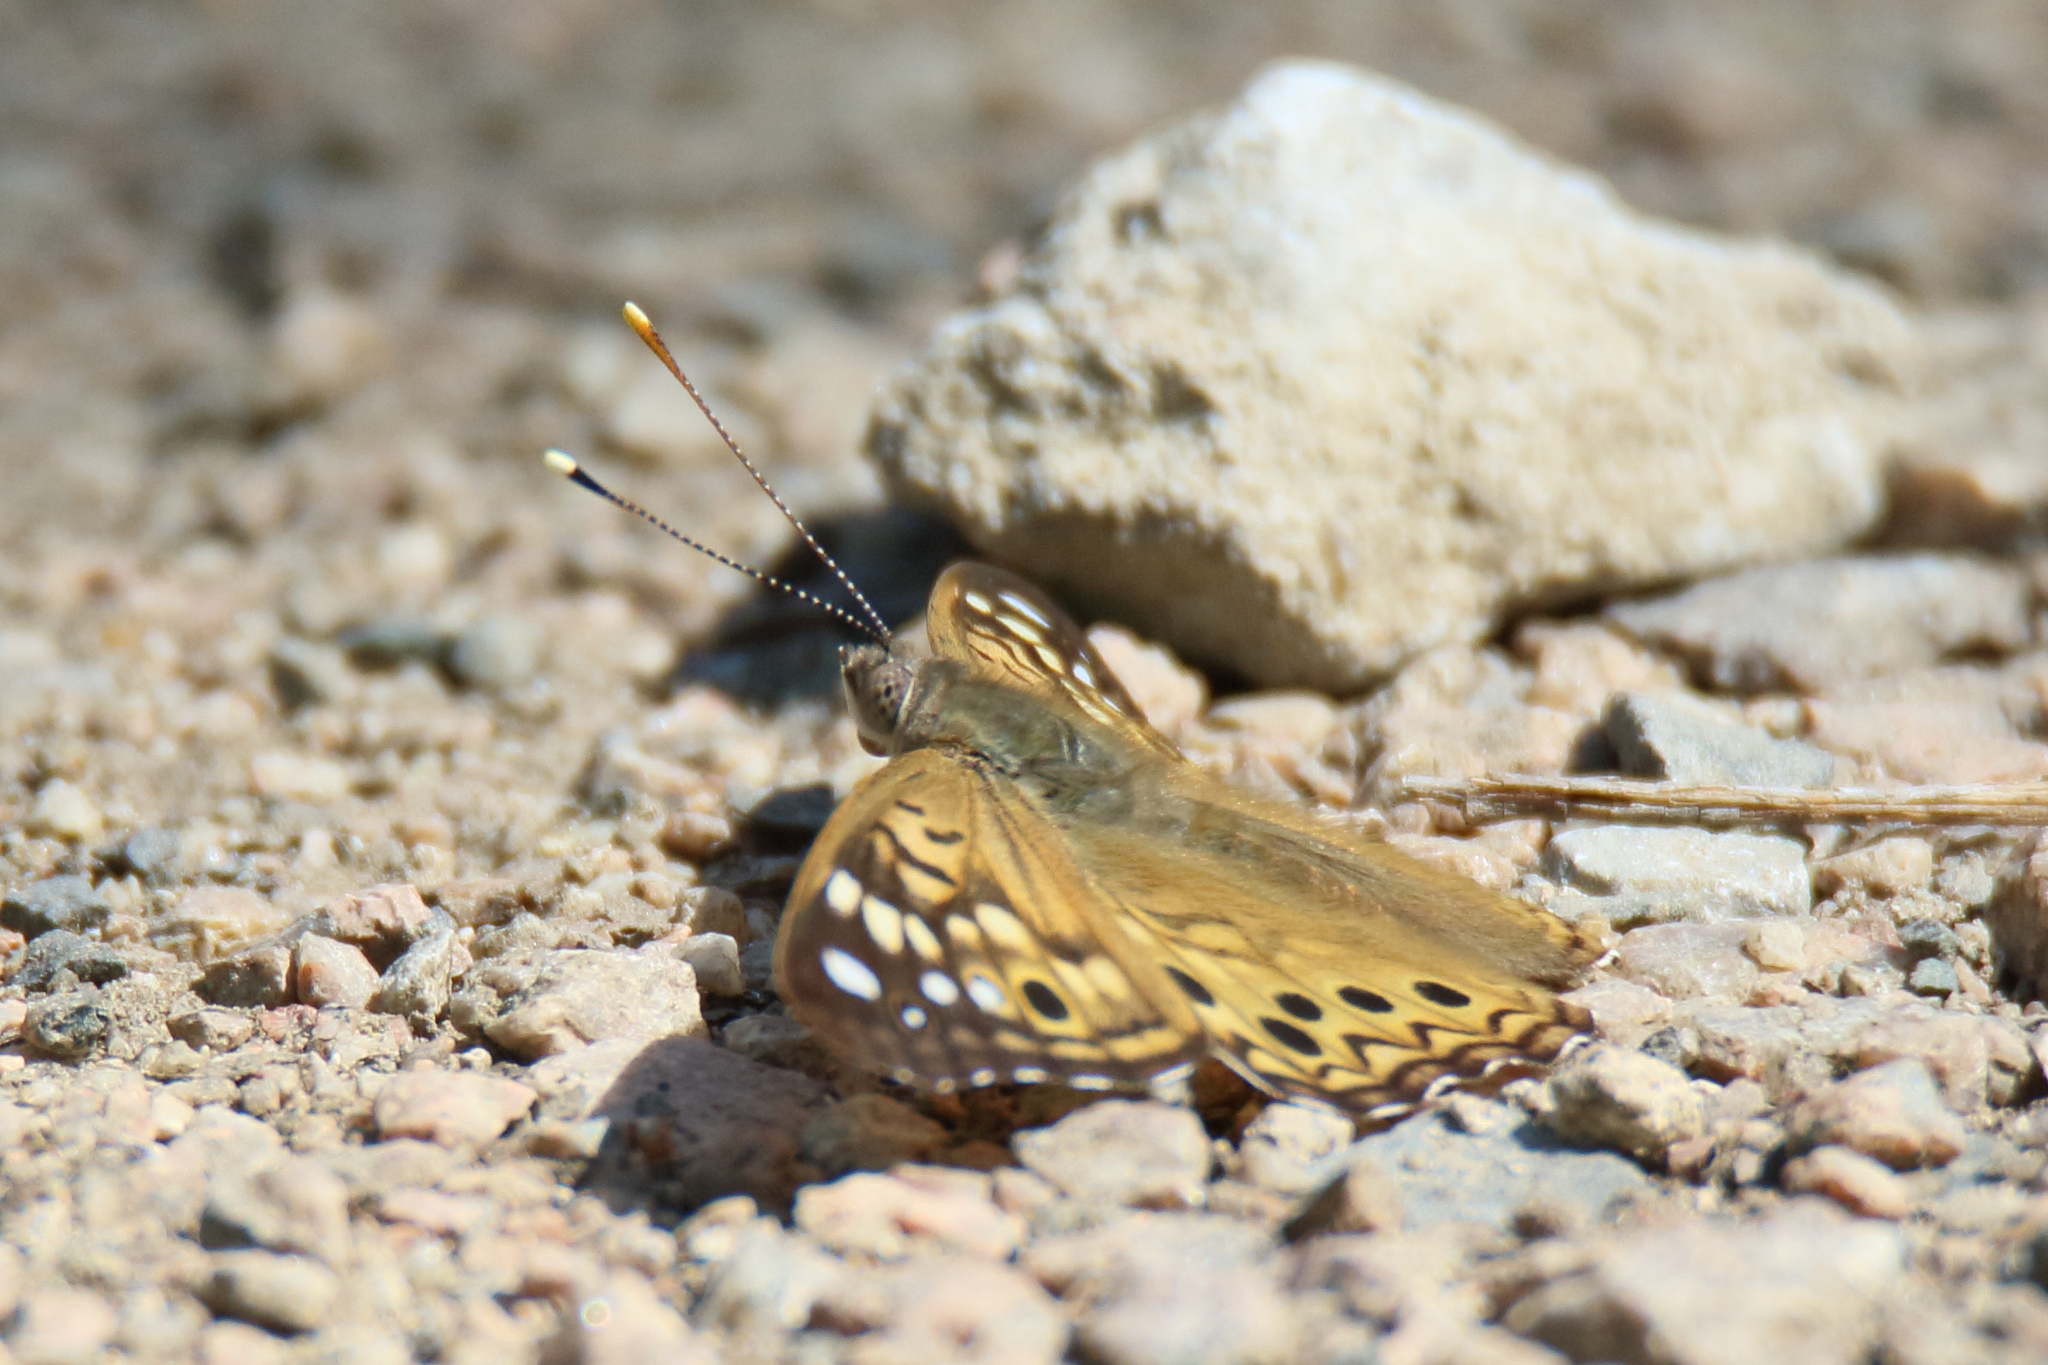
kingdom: Animalia
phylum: Arthropoda
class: Insecta
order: Lepidoptera
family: Nymphalidae
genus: Asterocampa
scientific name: Asterocampa celtis
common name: Hackberry emperor
